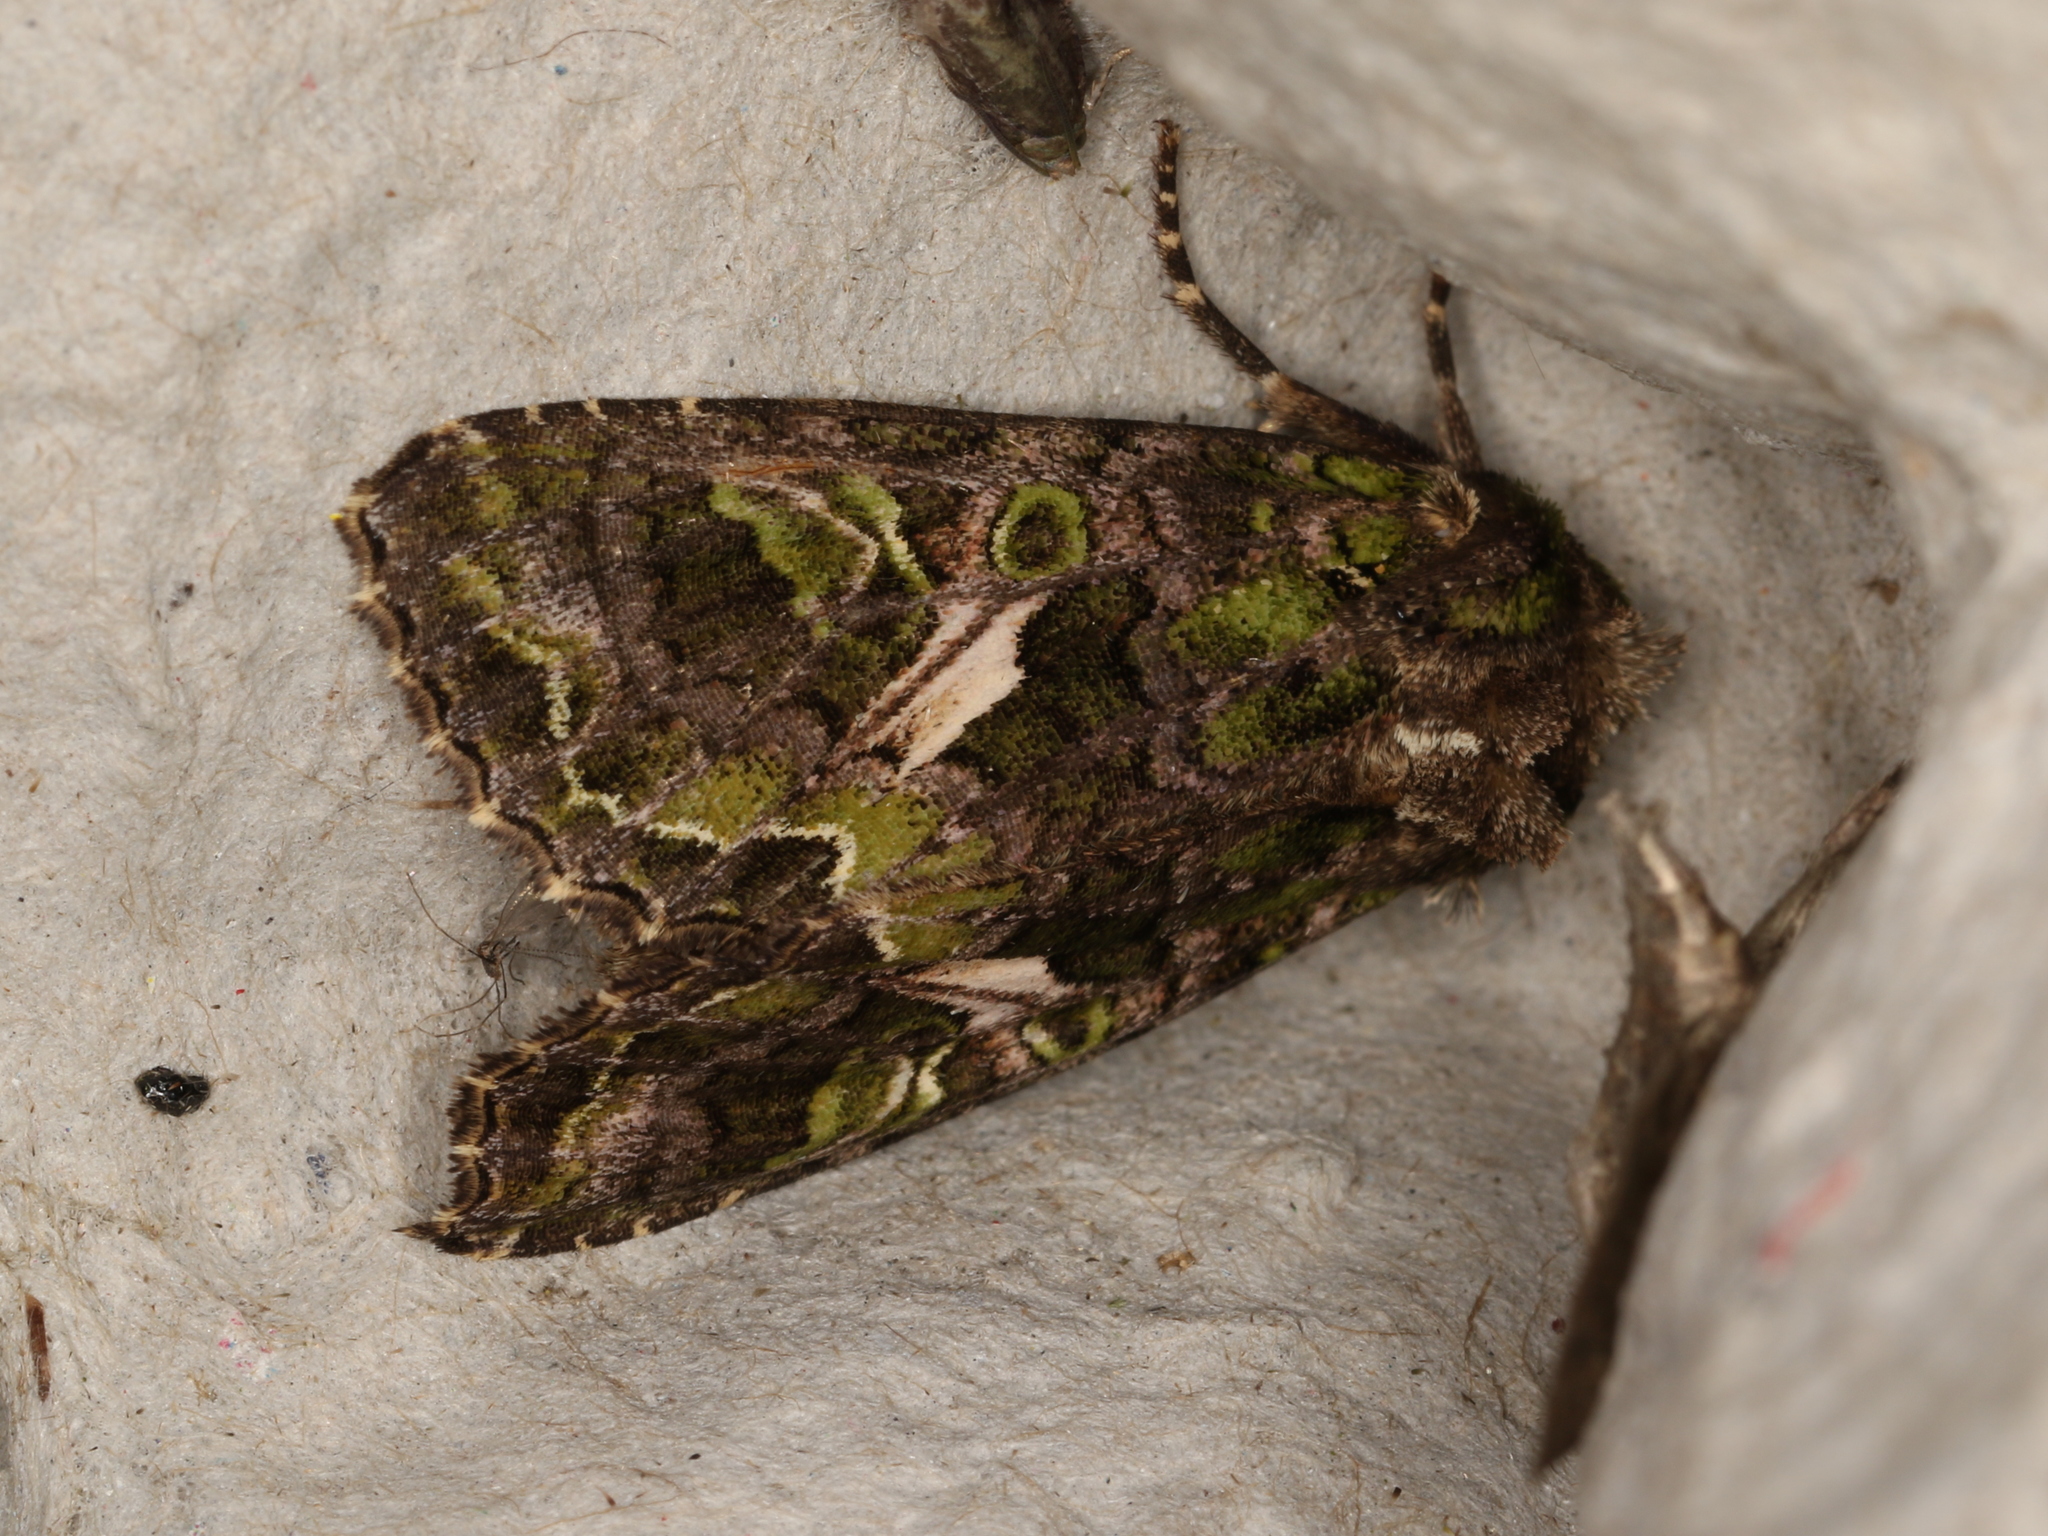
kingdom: Animalia
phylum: Arthropoda
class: Insecta
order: Lepidoptera
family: Noctuidae
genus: Trachea
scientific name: Trachea atriplicis
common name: Orache moth
